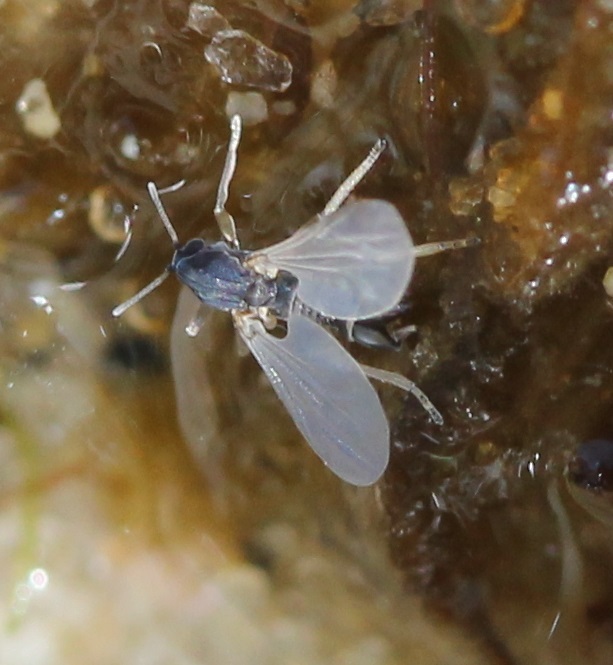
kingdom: Animalia
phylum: Arthropoda
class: Insecta
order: Diptera
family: Chironomidae
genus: Clunio
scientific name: Clunio californiensis
